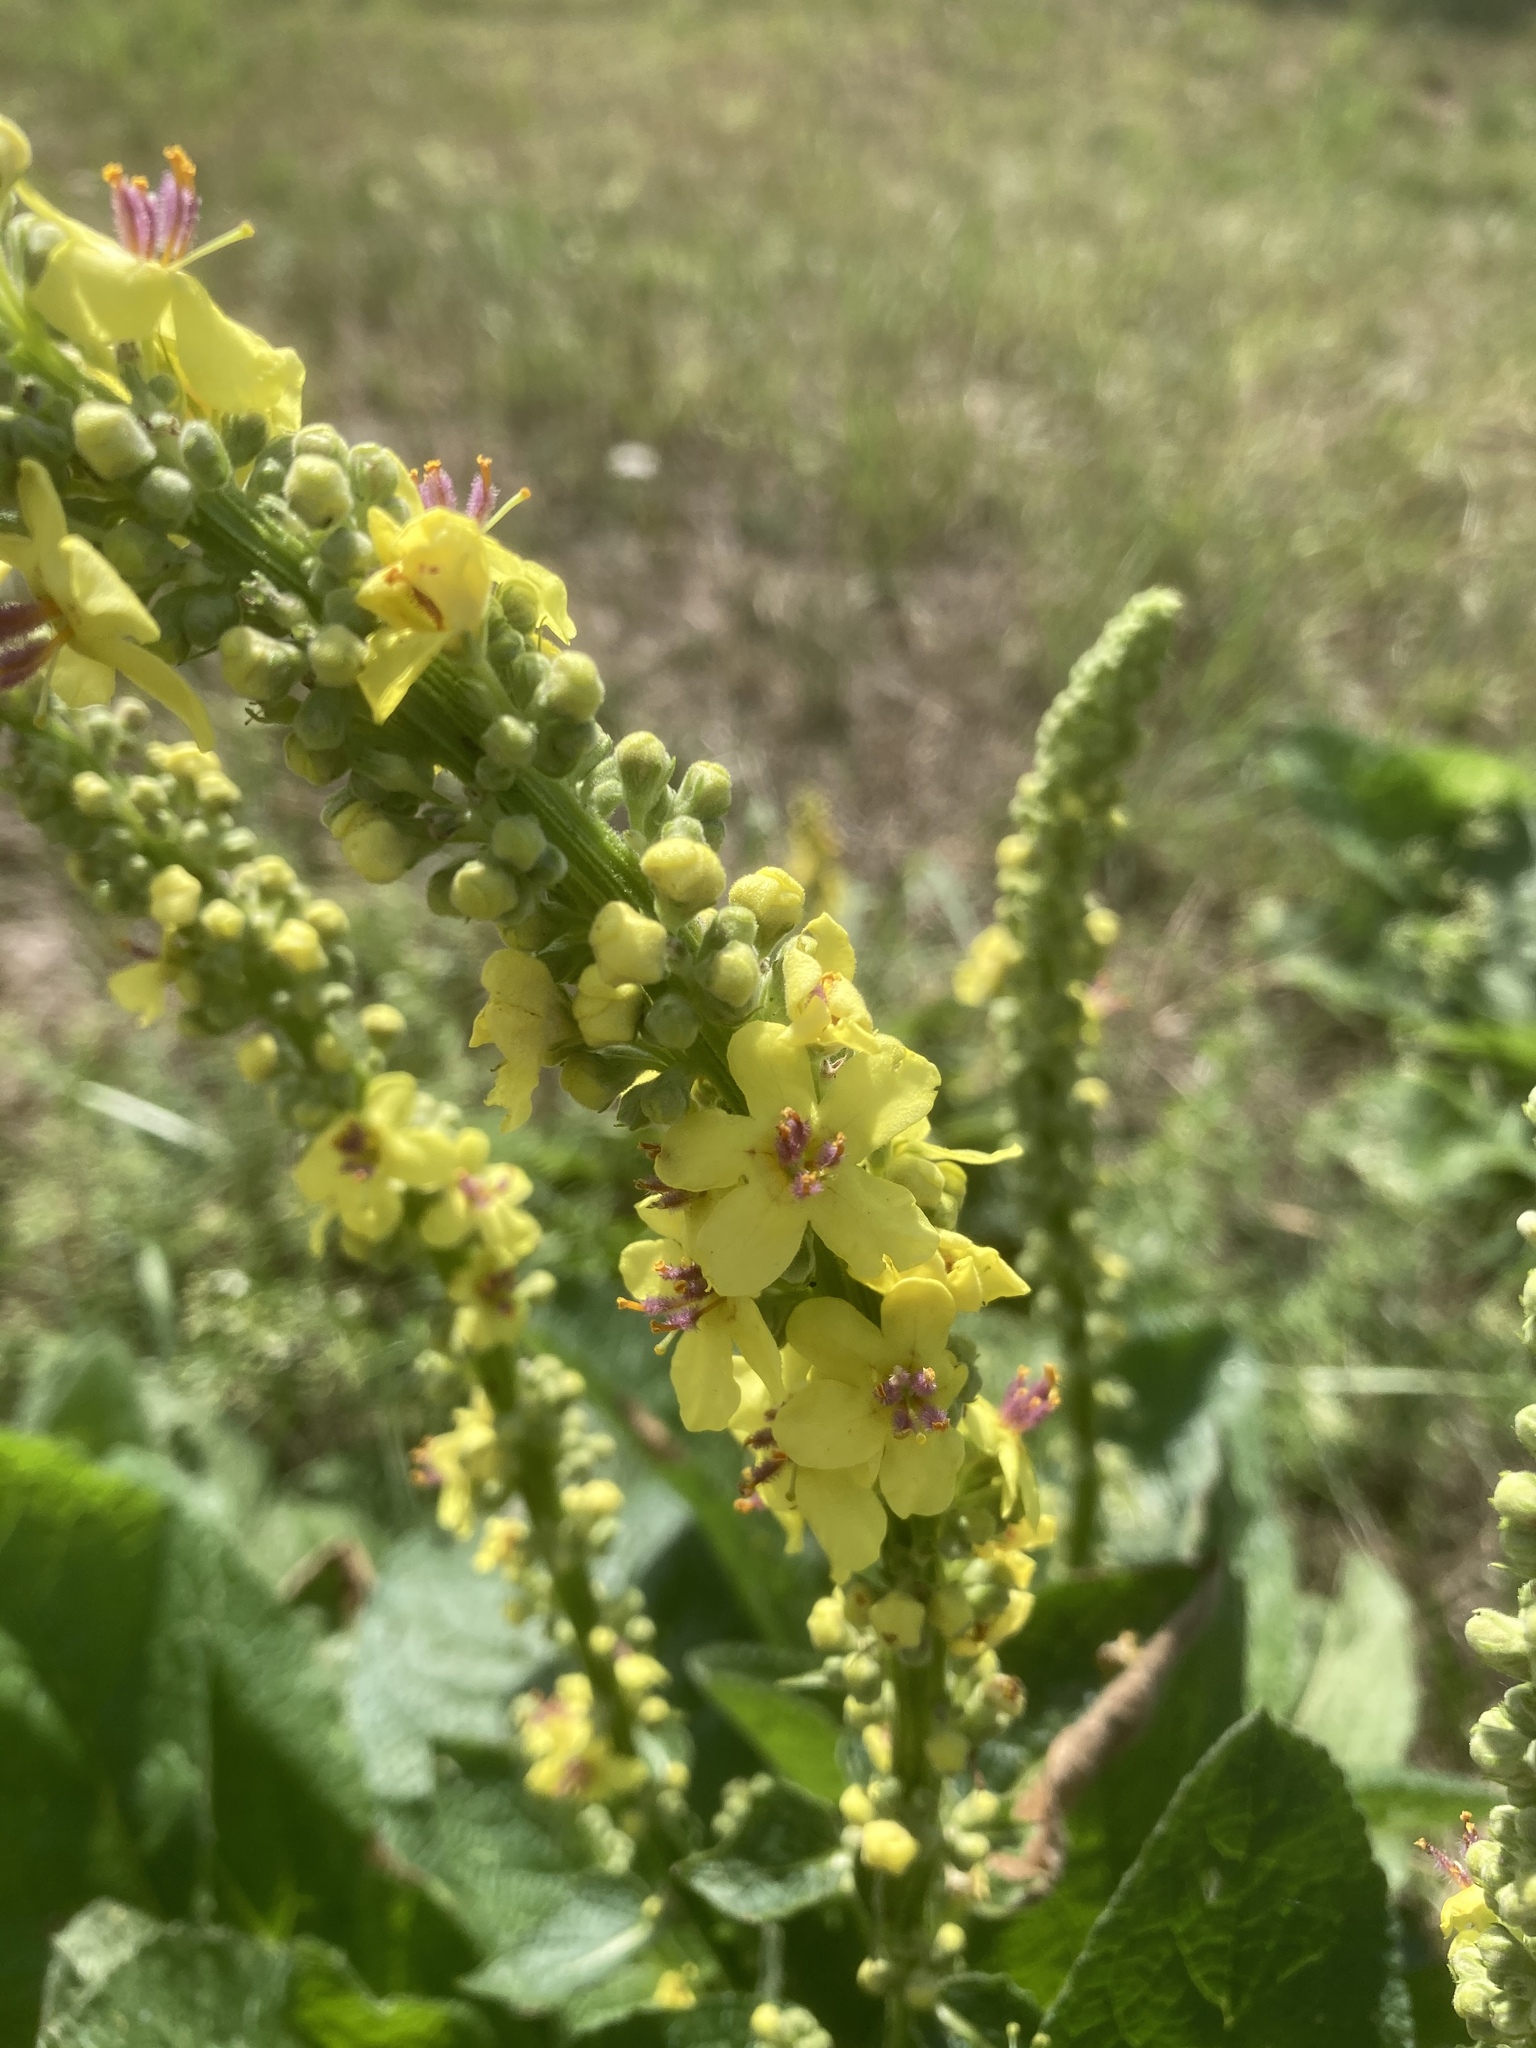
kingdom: Plantae
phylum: Tracheophyta
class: Magnoliopsida
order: Lamiales
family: Scrophulariaceae
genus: Verbascum
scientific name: Verbascum nigrum
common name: Dark mullein
